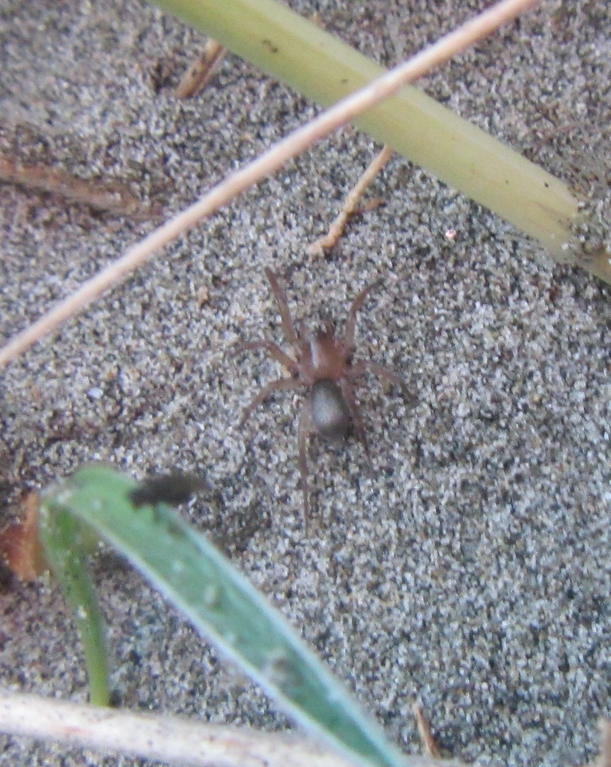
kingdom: Animalia
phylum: Arthropoda
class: Arachnida
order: Araneae
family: Gnaphosidae
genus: Anzacia
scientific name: Anzacia gemmea
